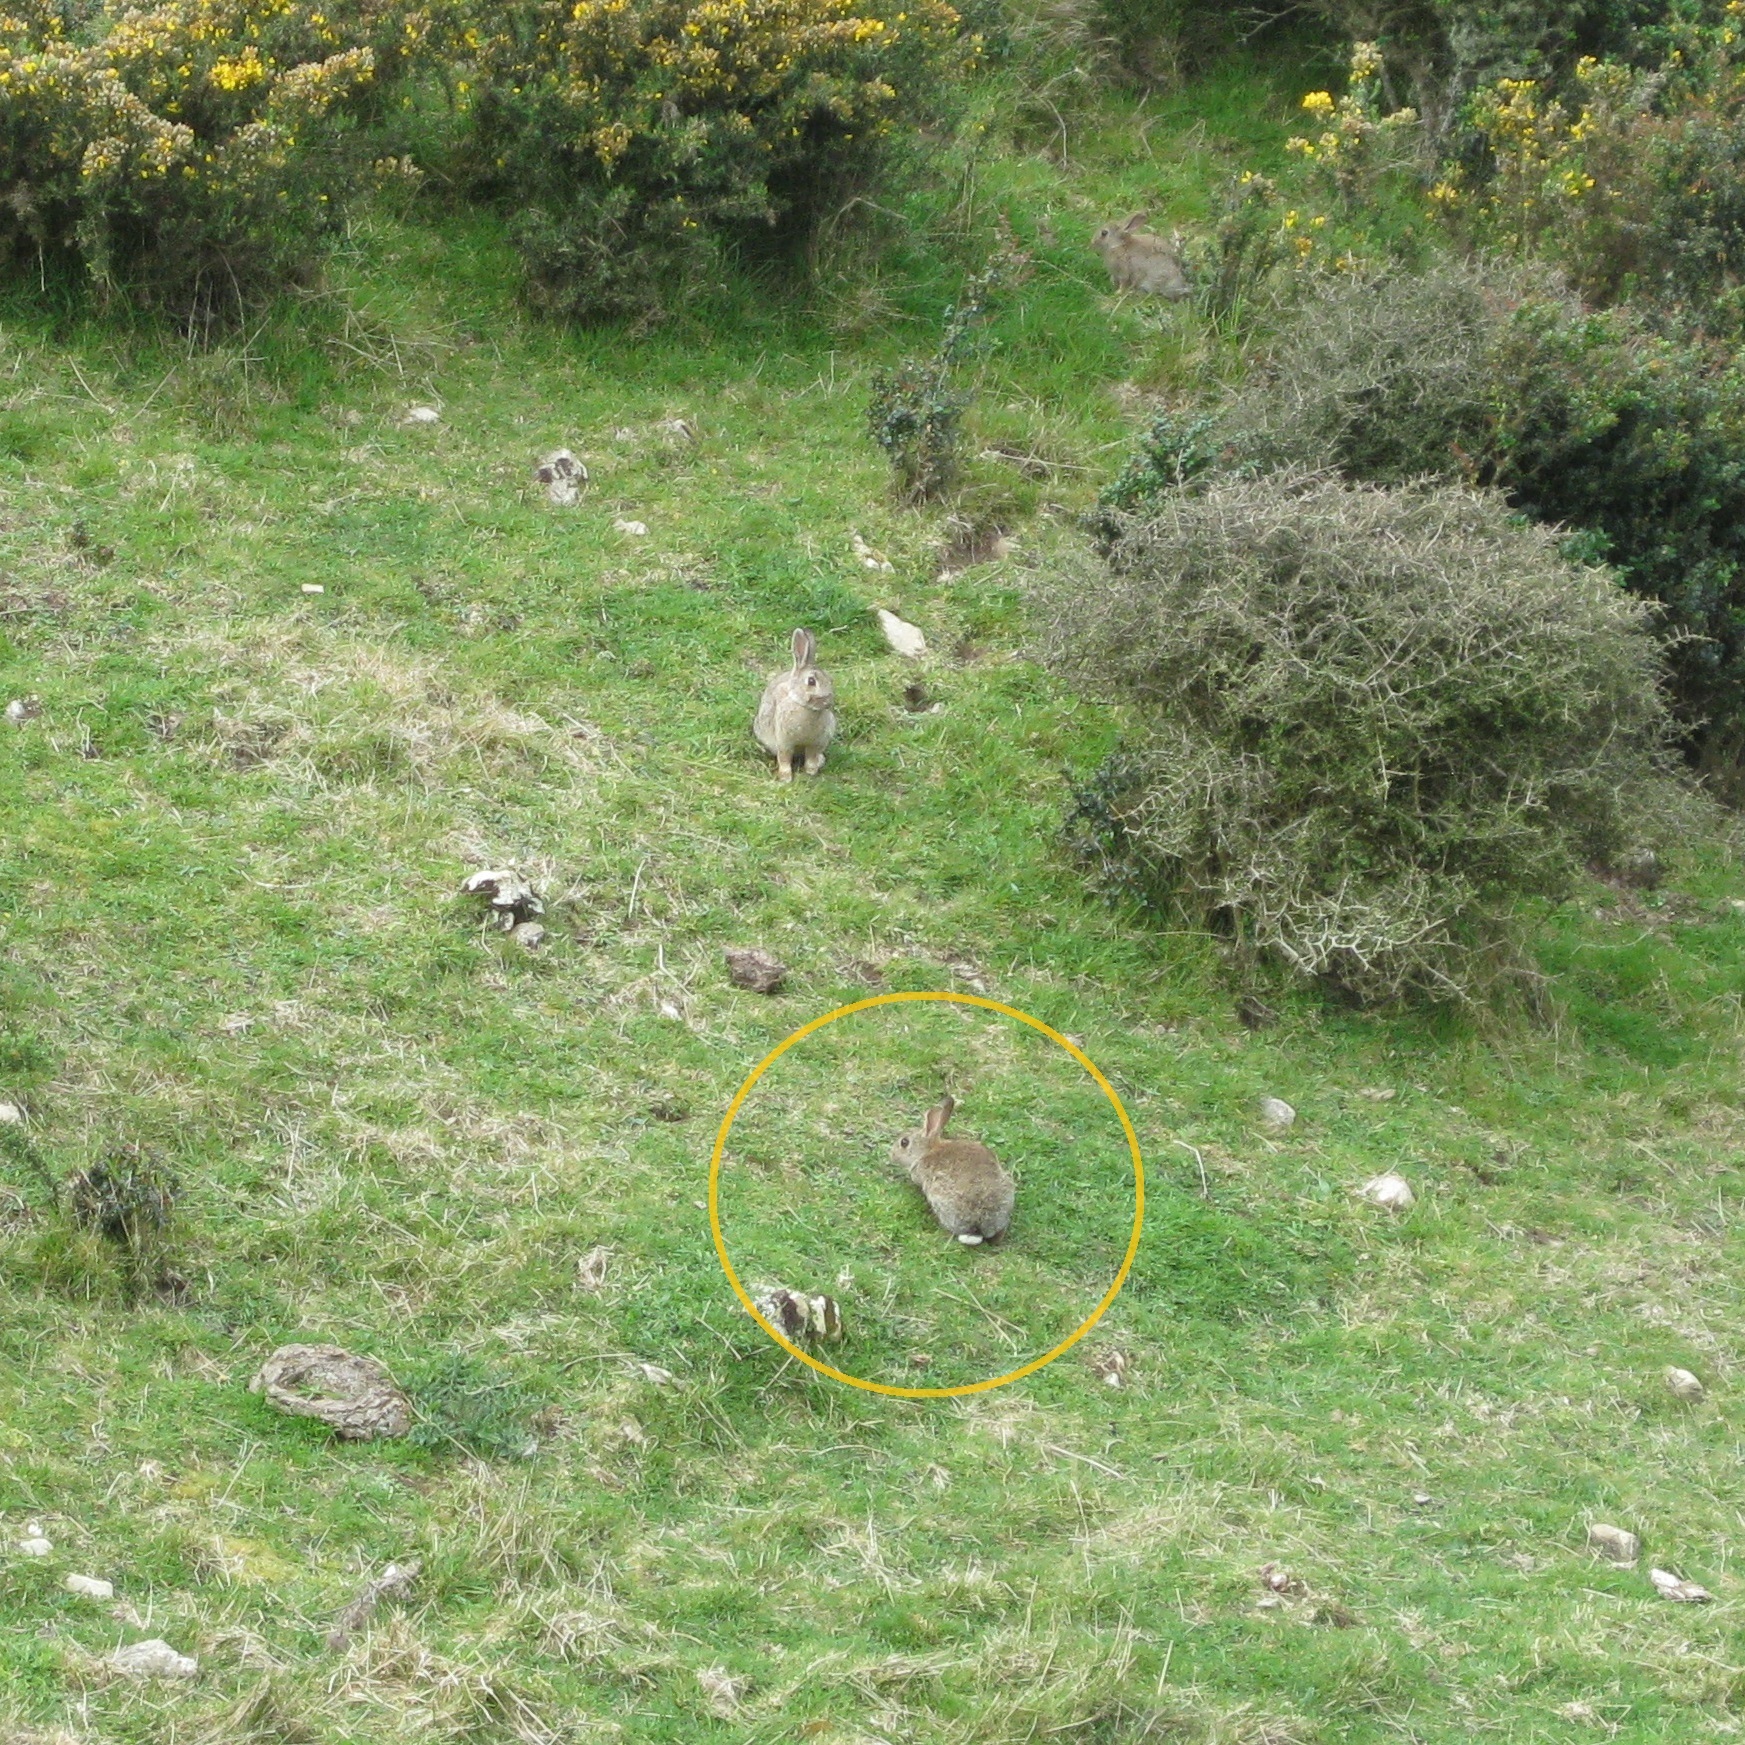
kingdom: Animalia
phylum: Chordata
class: Mammalia
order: Lagomorpha
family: Leporidae
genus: Oryctolagus
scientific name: Oryctolagus cuniculus
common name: European rabbit
